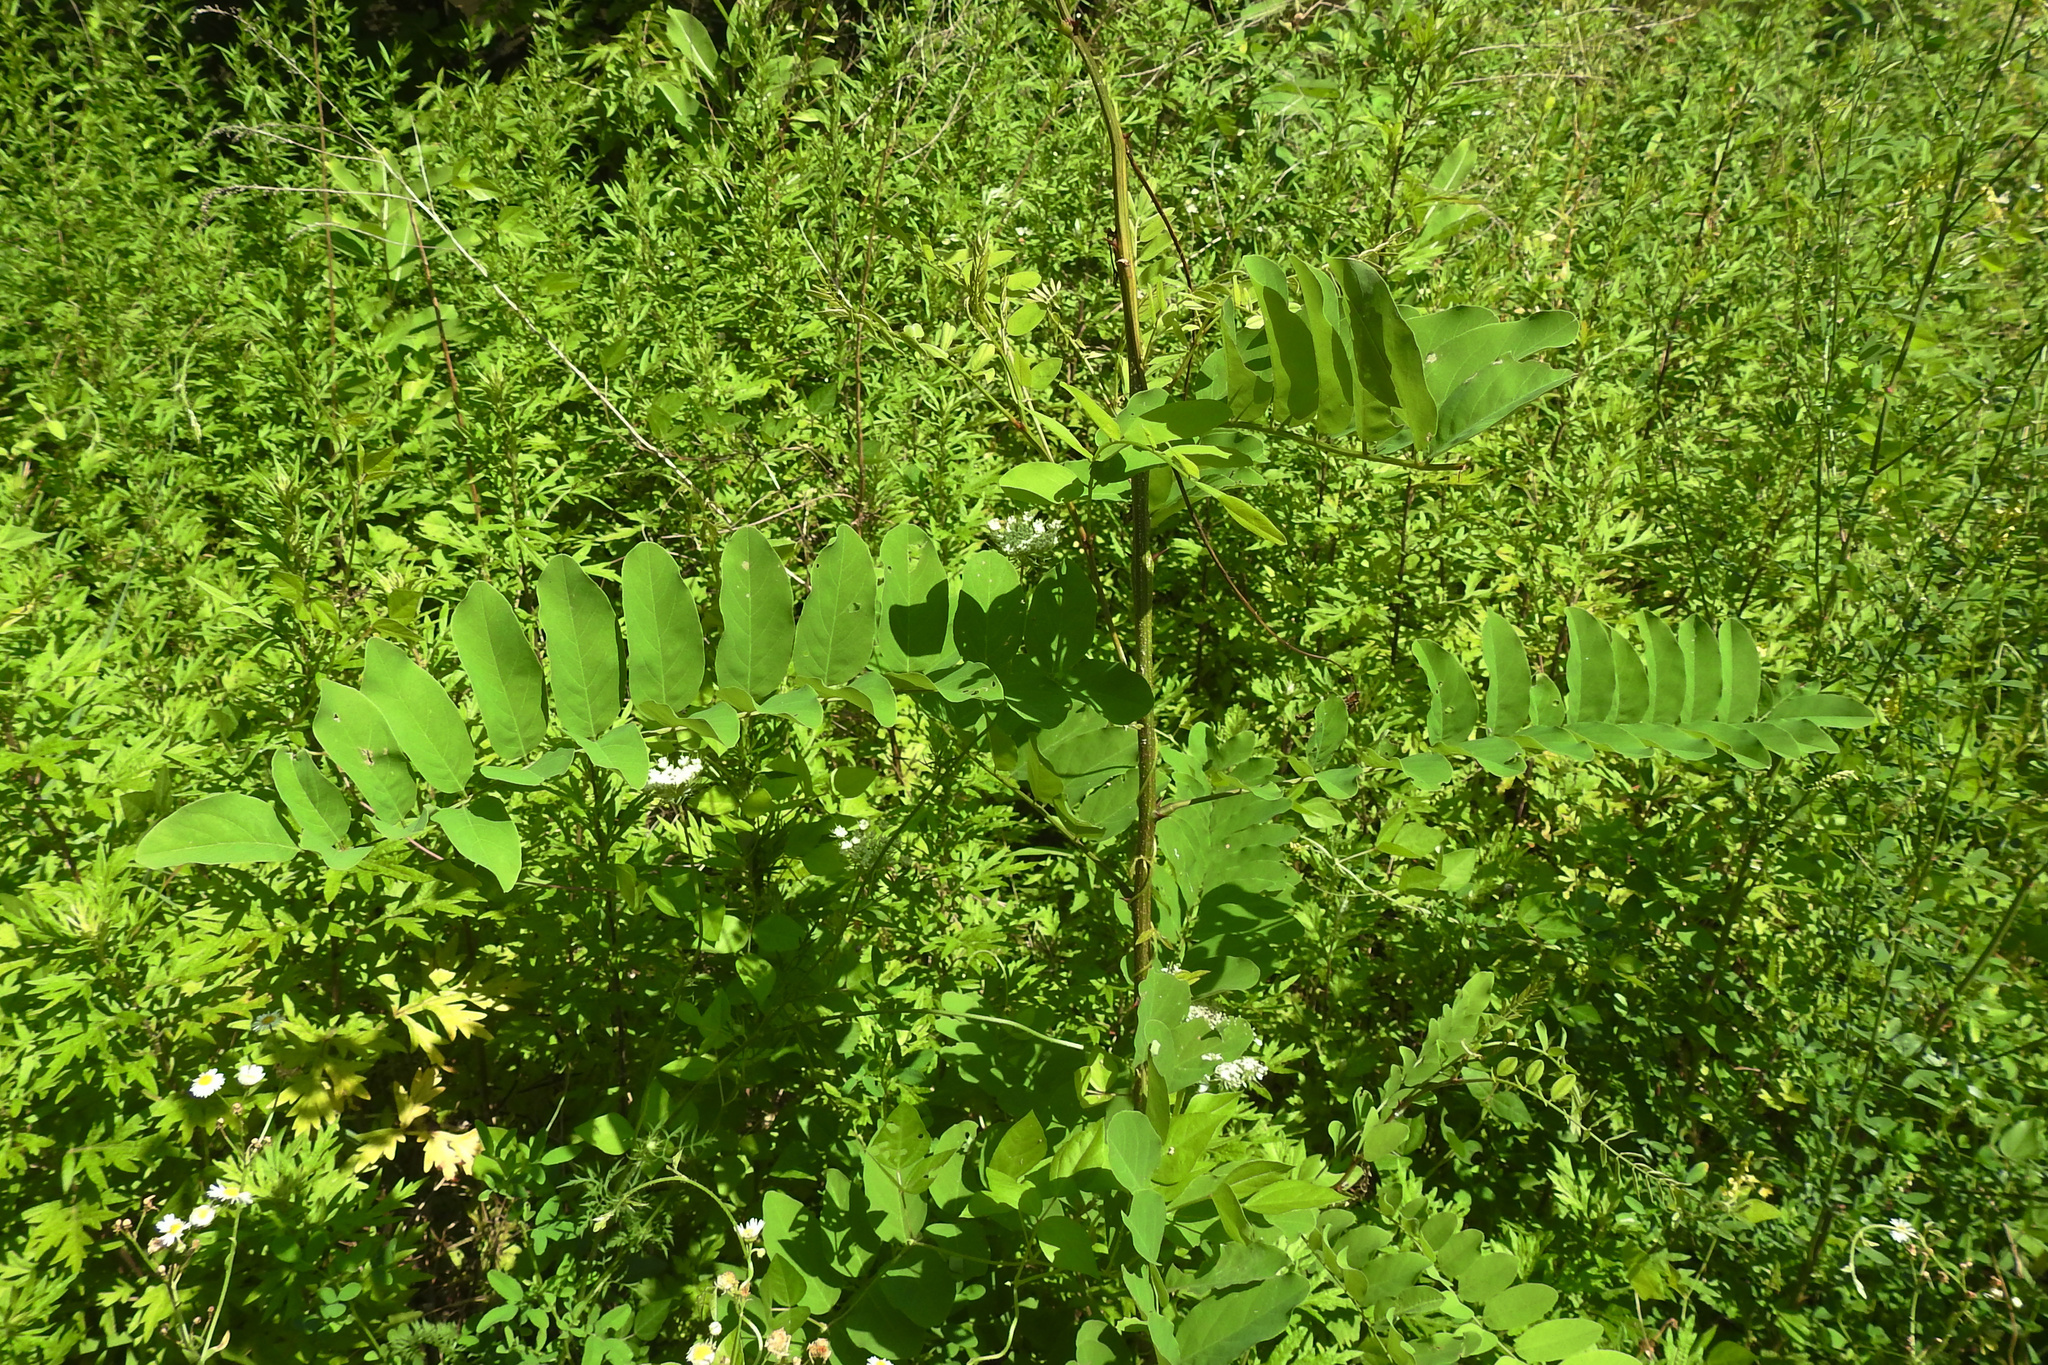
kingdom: Plantae
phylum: Tracheophyta
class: Magnoliopsida
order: Fabales
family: Fabaceae
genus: Robinia
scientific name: Robinia pseudoacacia
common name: Black locust
